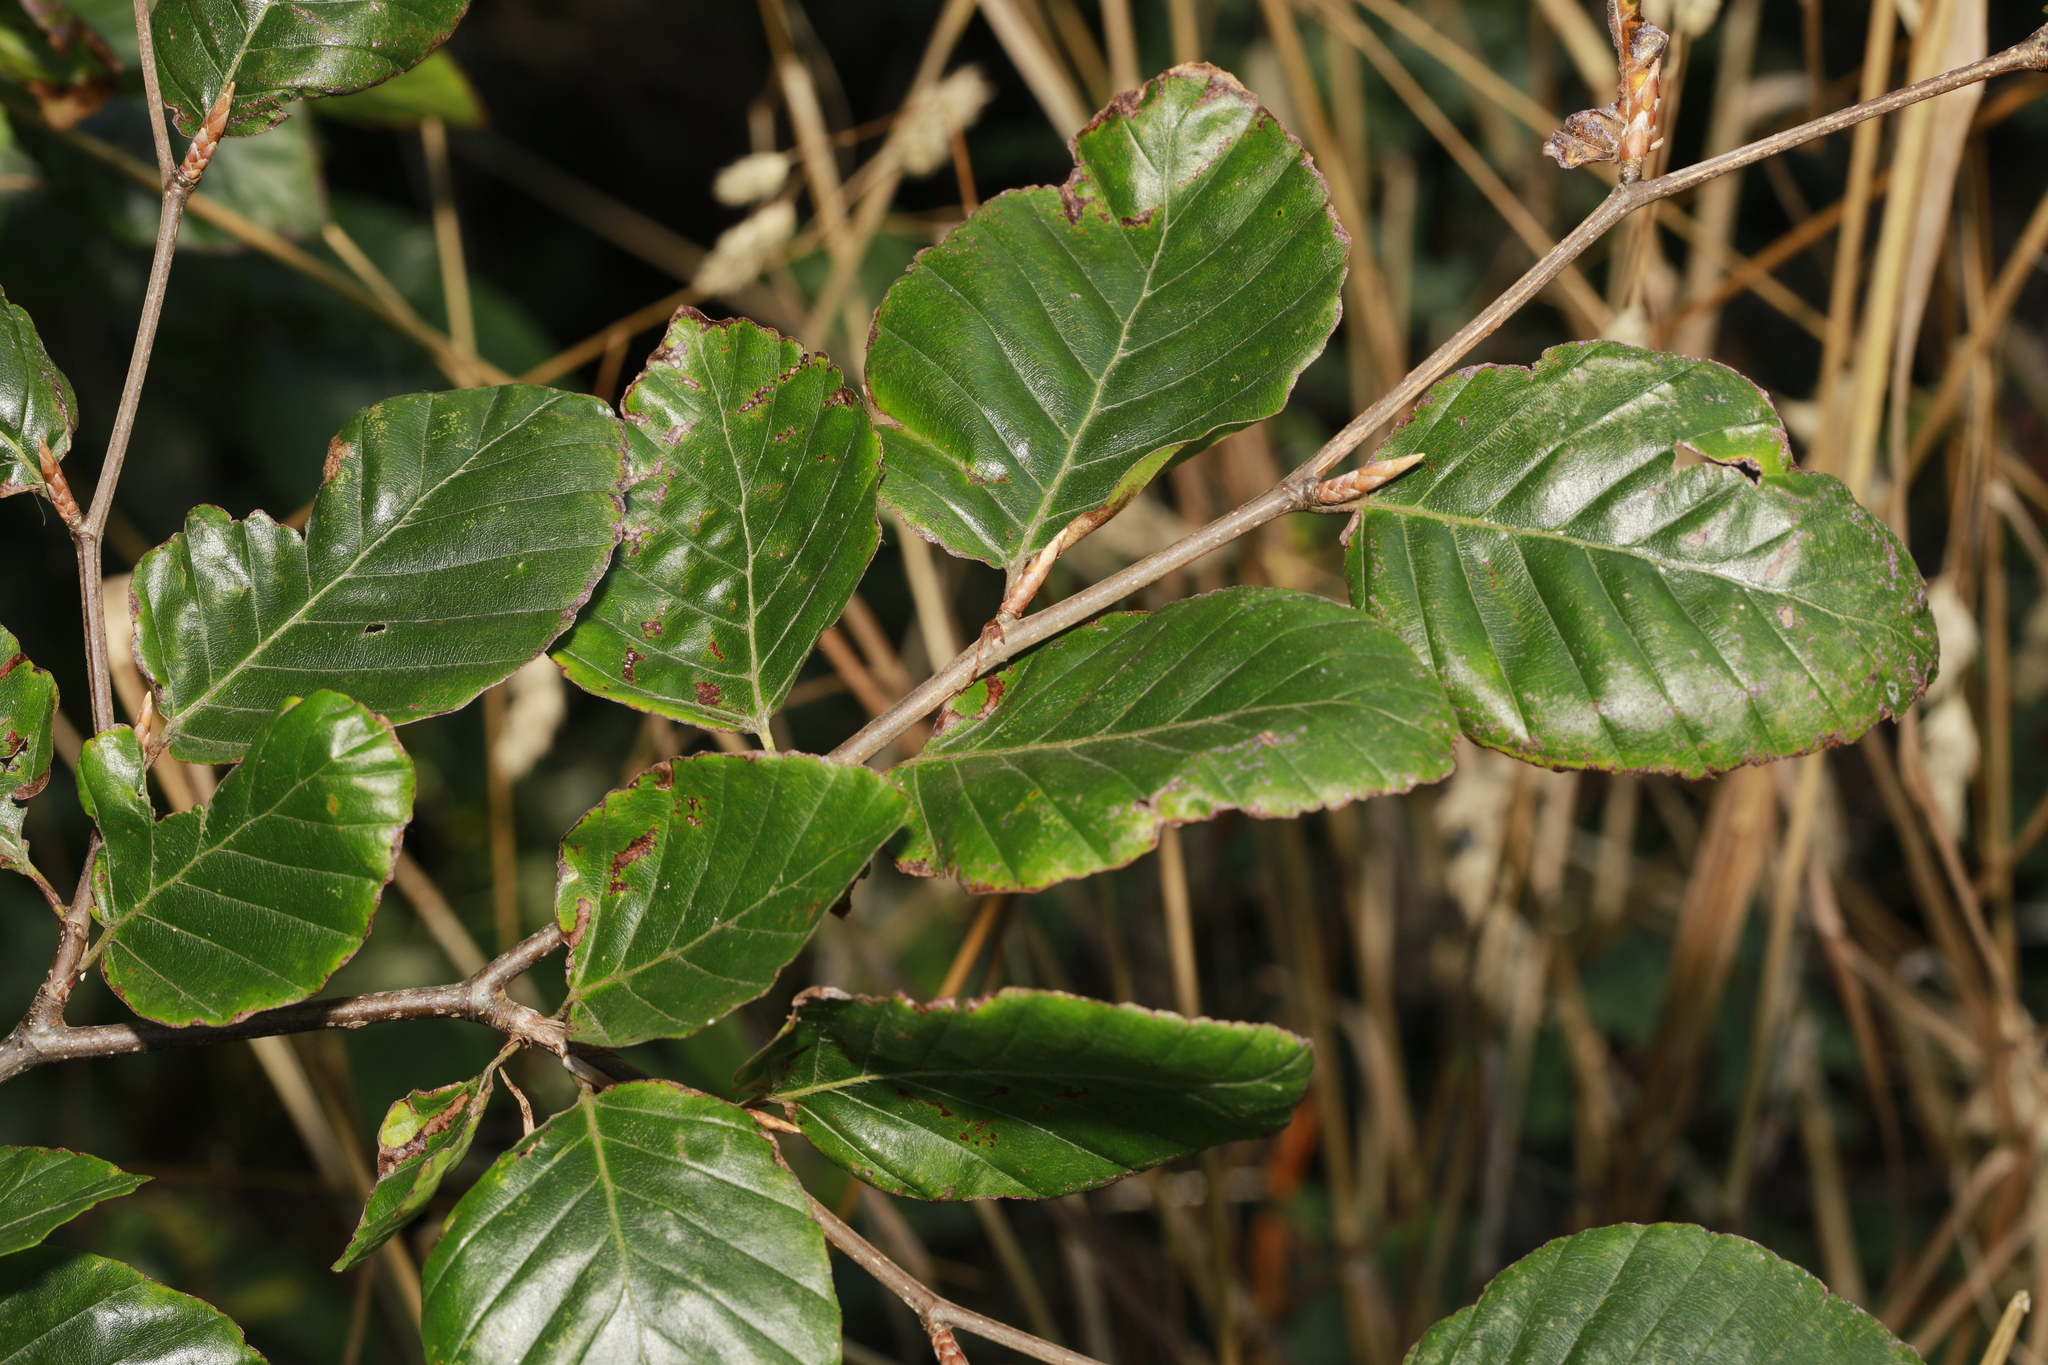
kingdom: Plantae
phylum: Tracheophyta
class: Magnoliopsida
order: Fagales
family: Fagaceae
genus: Fagus
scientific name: Fagus sylvatica
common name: Beech
